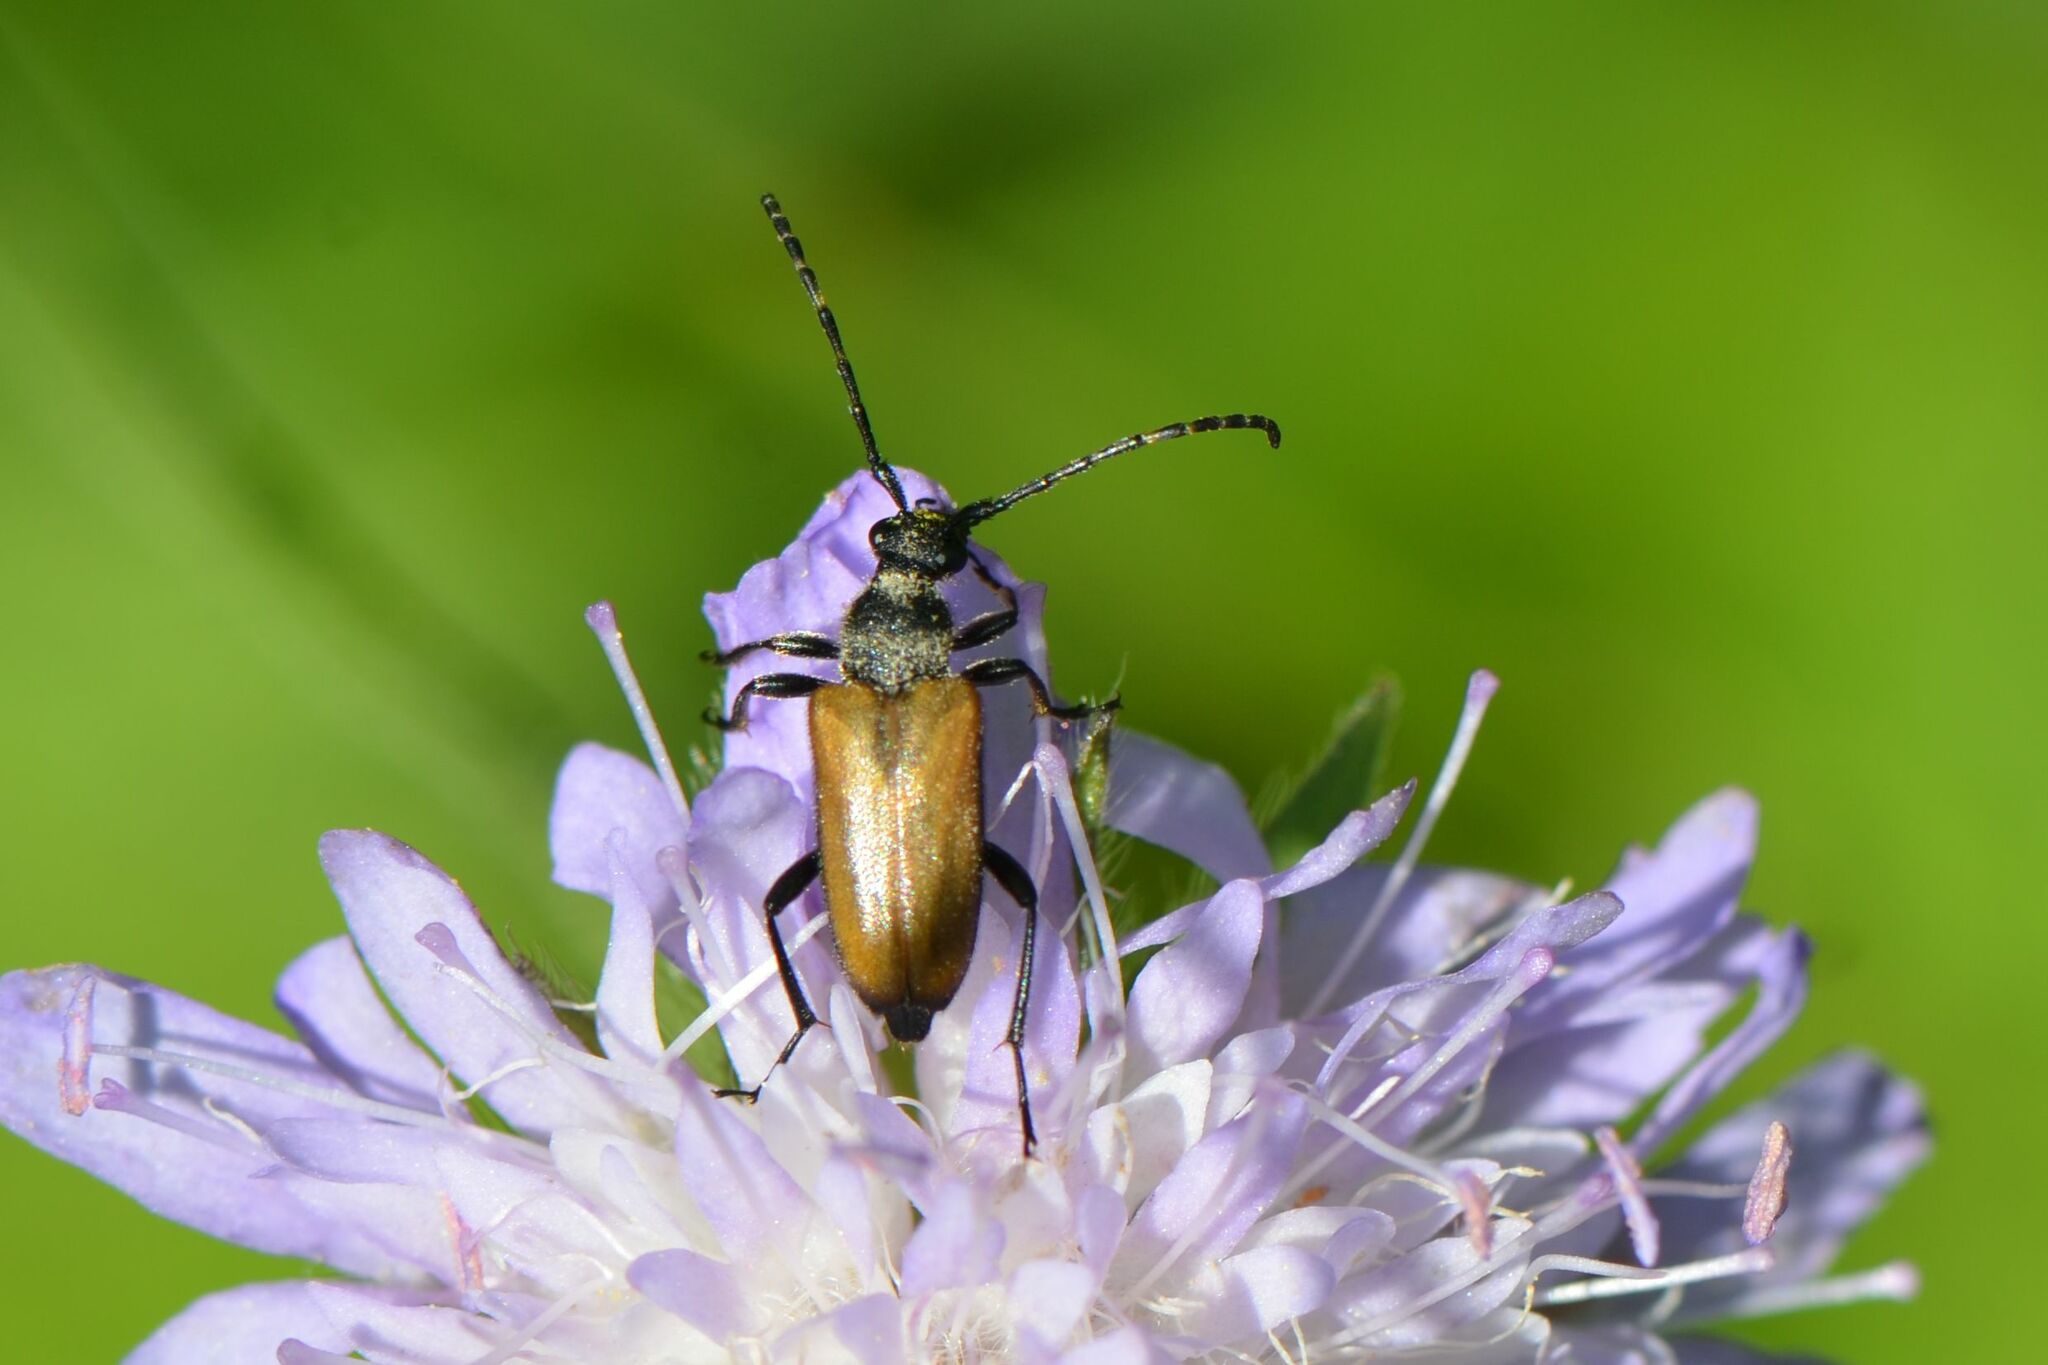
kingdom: Animalia
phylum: Arthropoda
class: Insecta
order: Coleoptera
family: Cerambycidae
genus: Paracorymbia
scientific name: Paracorymbia maculicornis
